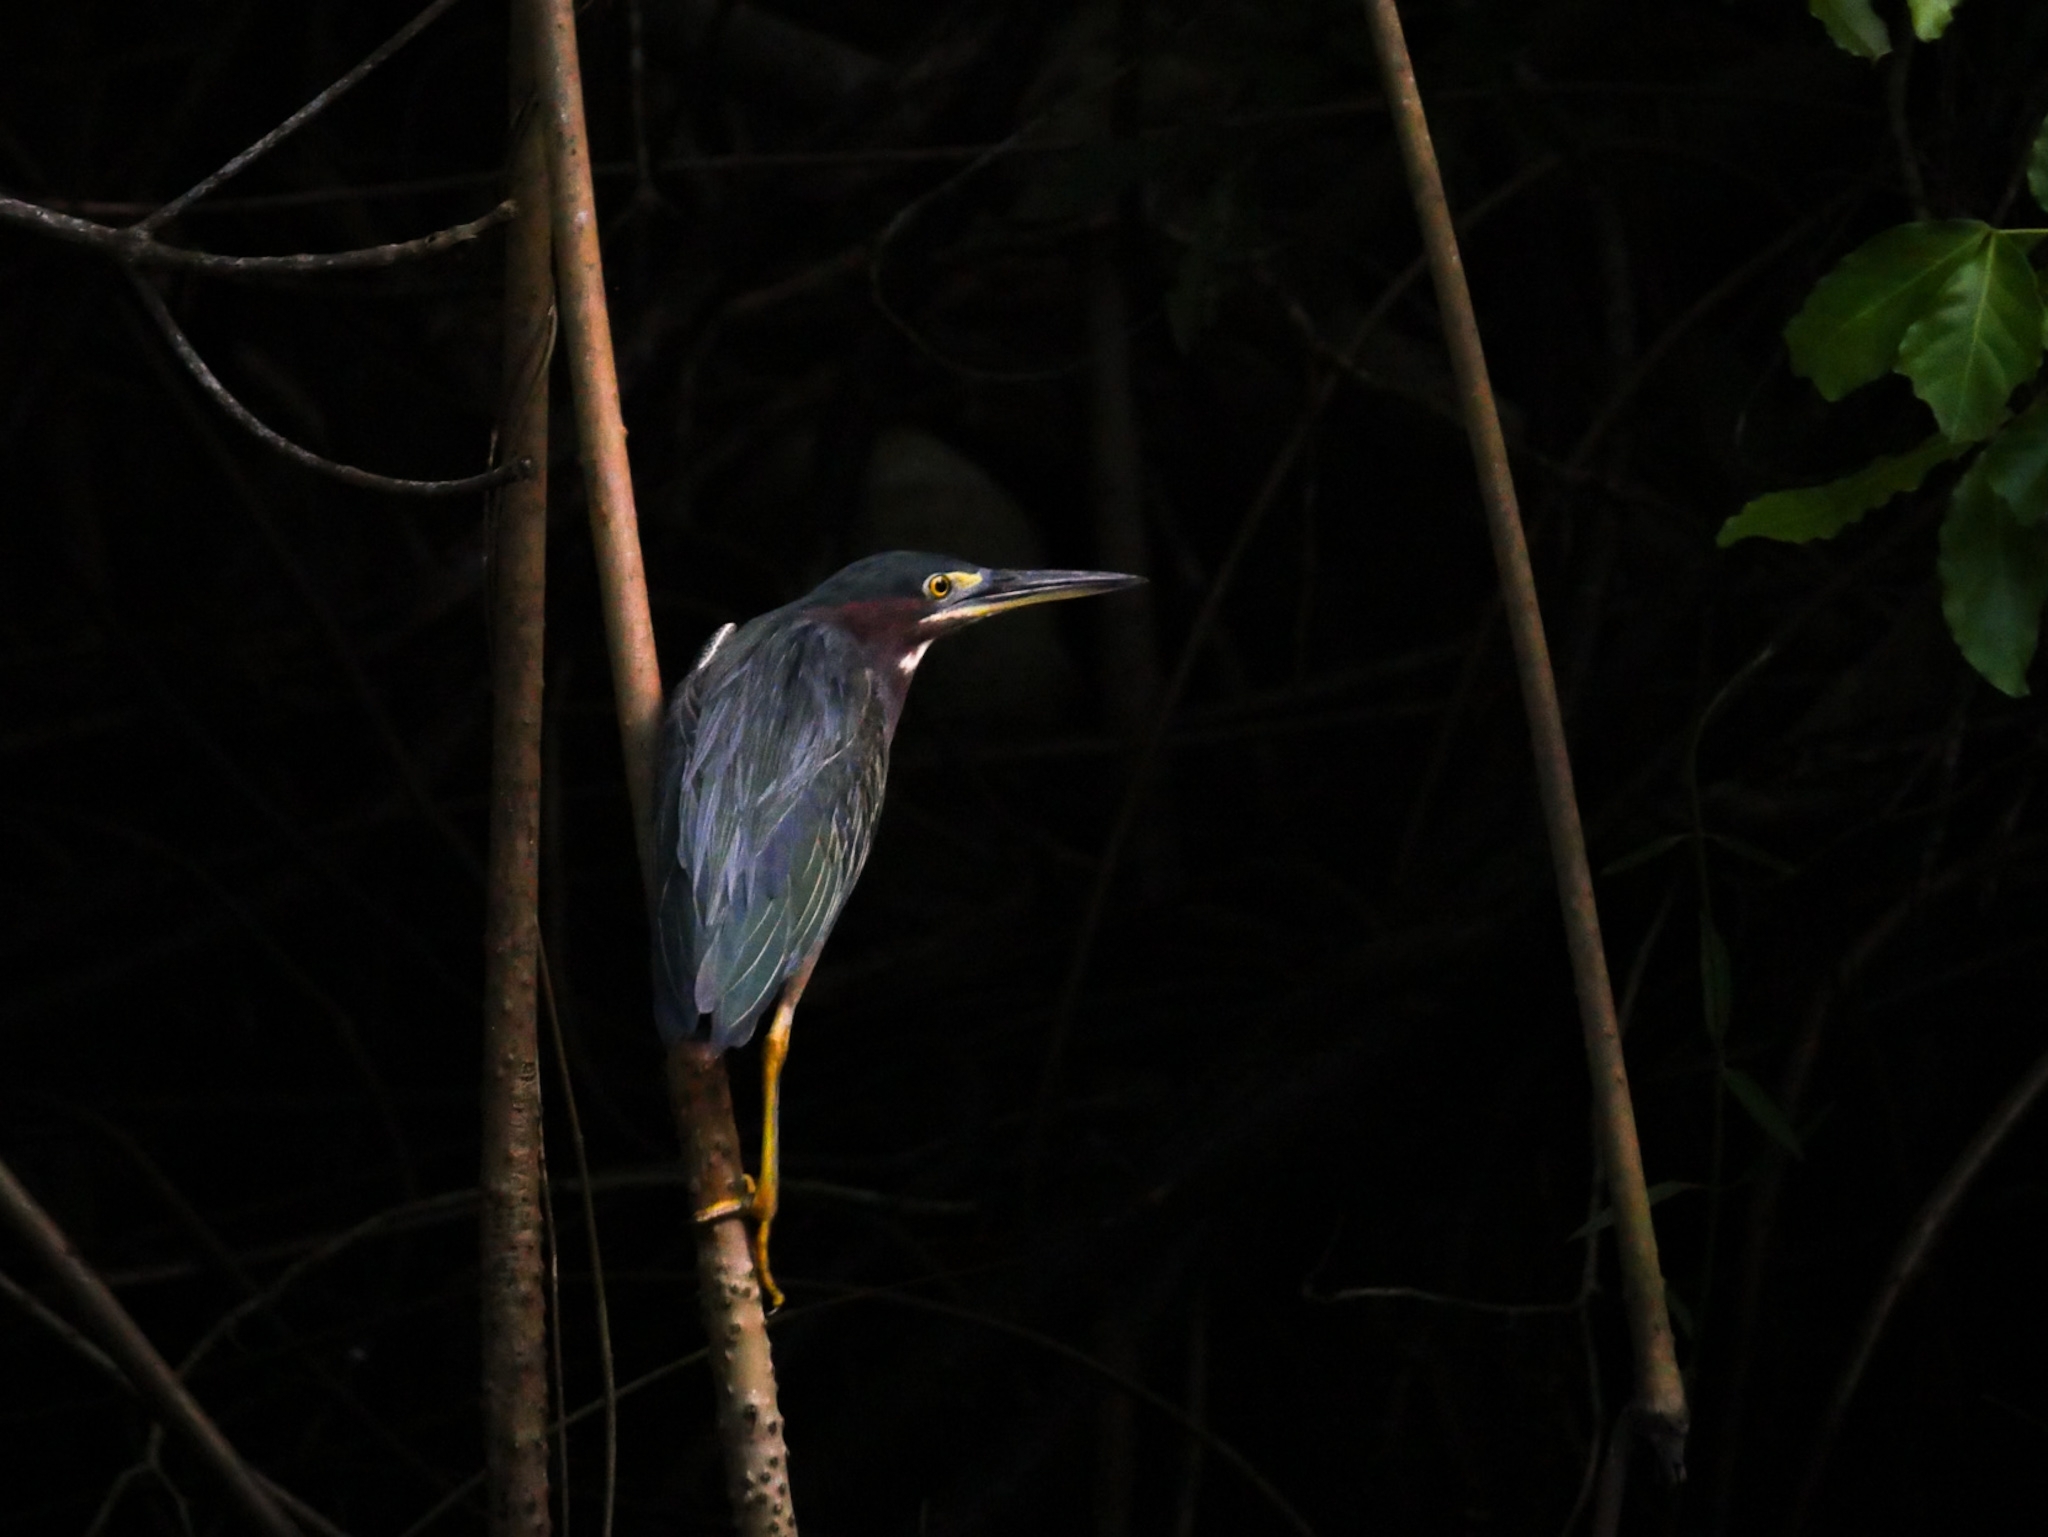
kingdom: Animalia
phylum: Chordata
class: Aves
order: Pelecaniformes
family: Ardeidae
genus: Butorides
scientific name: Butorides virescens
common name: Green heron
